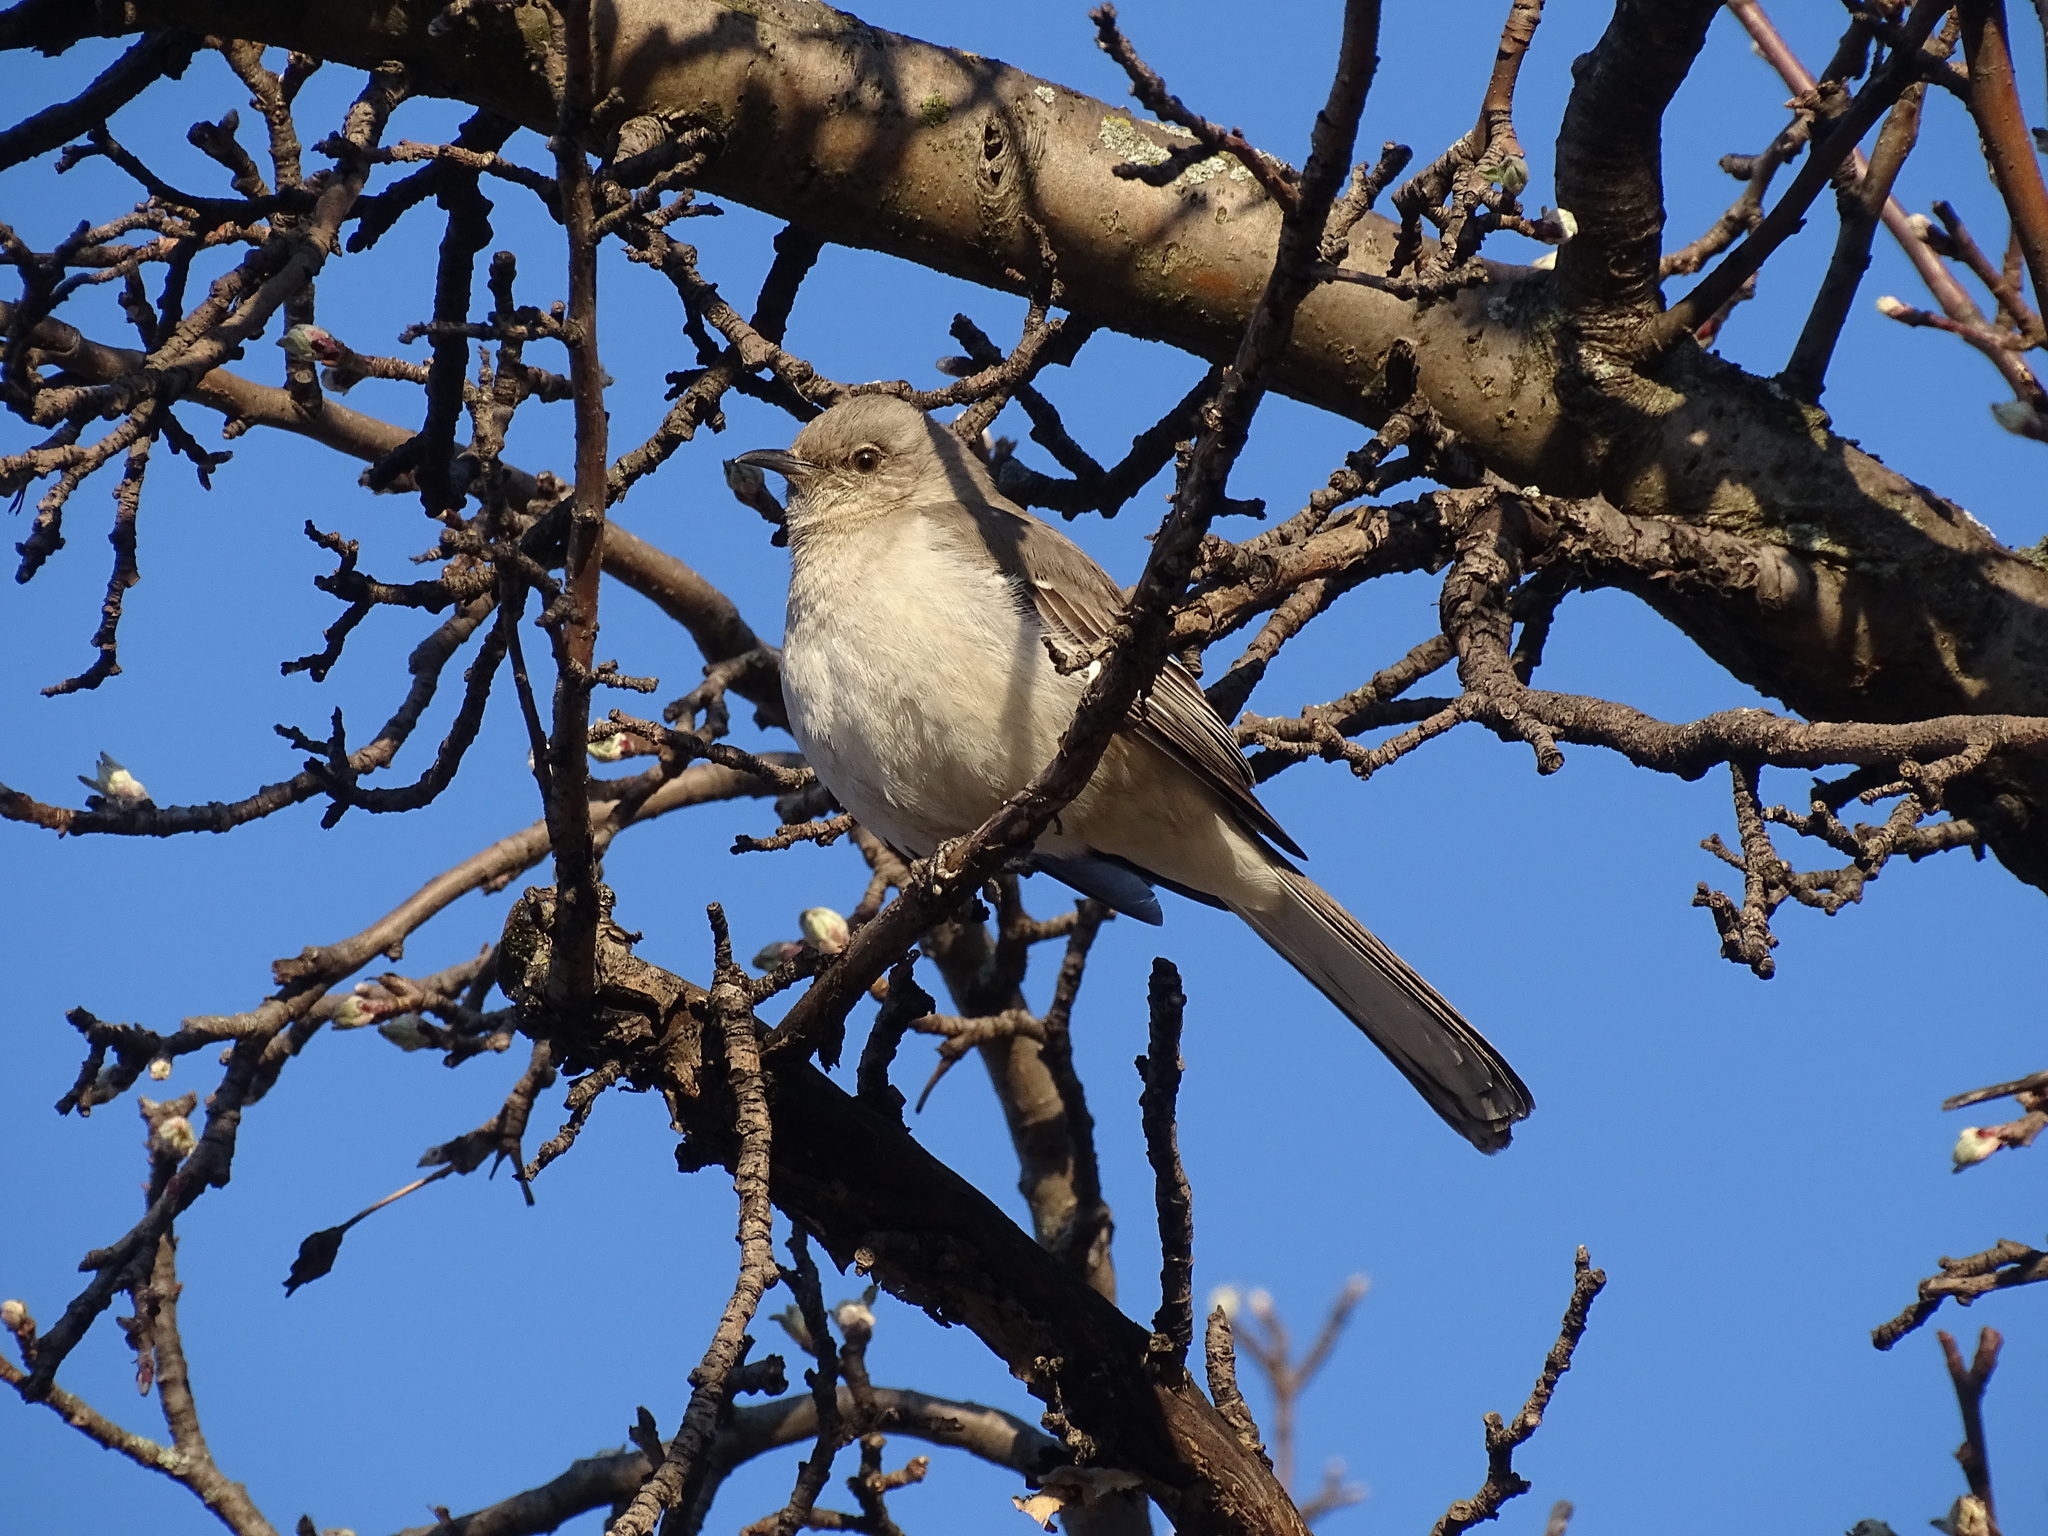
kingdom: Animalia
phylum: Chordata
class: Aves
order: Passeriformes
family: Mimidae
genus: Mimus
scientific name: Mimus polyglottos
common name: Northern mockingbird
